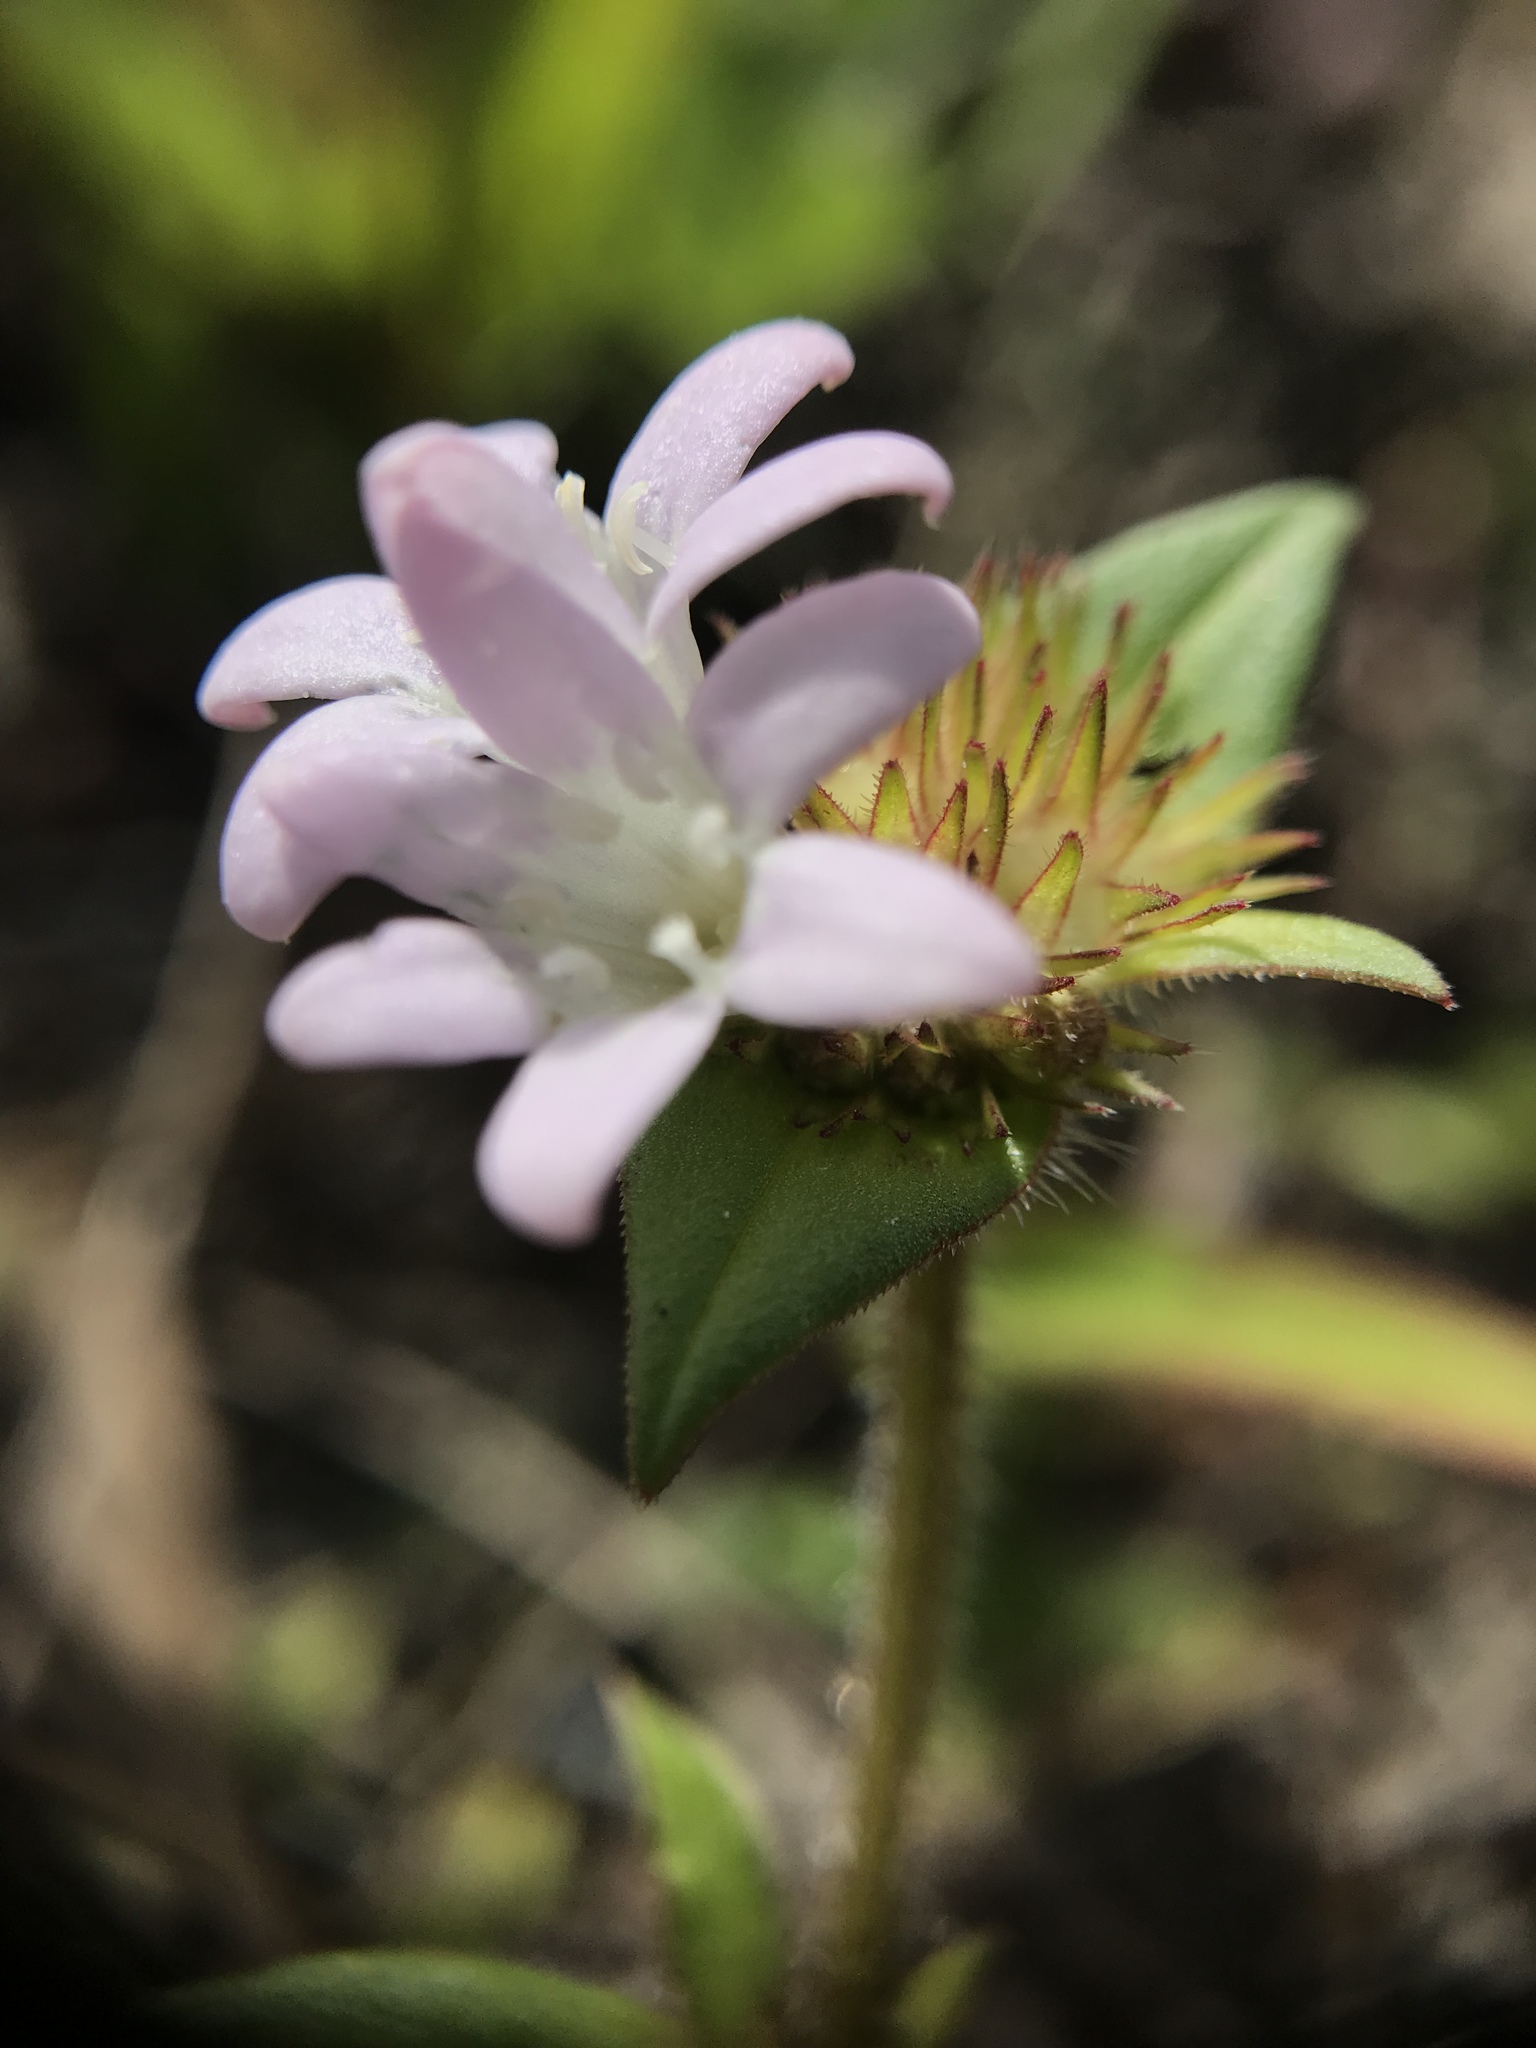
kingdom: Plantae
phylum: Tracheophyta
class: Magnoliopsida
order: Gentianales
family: Rubiaceae
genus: Richardia
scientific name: Richardia grandiflora
